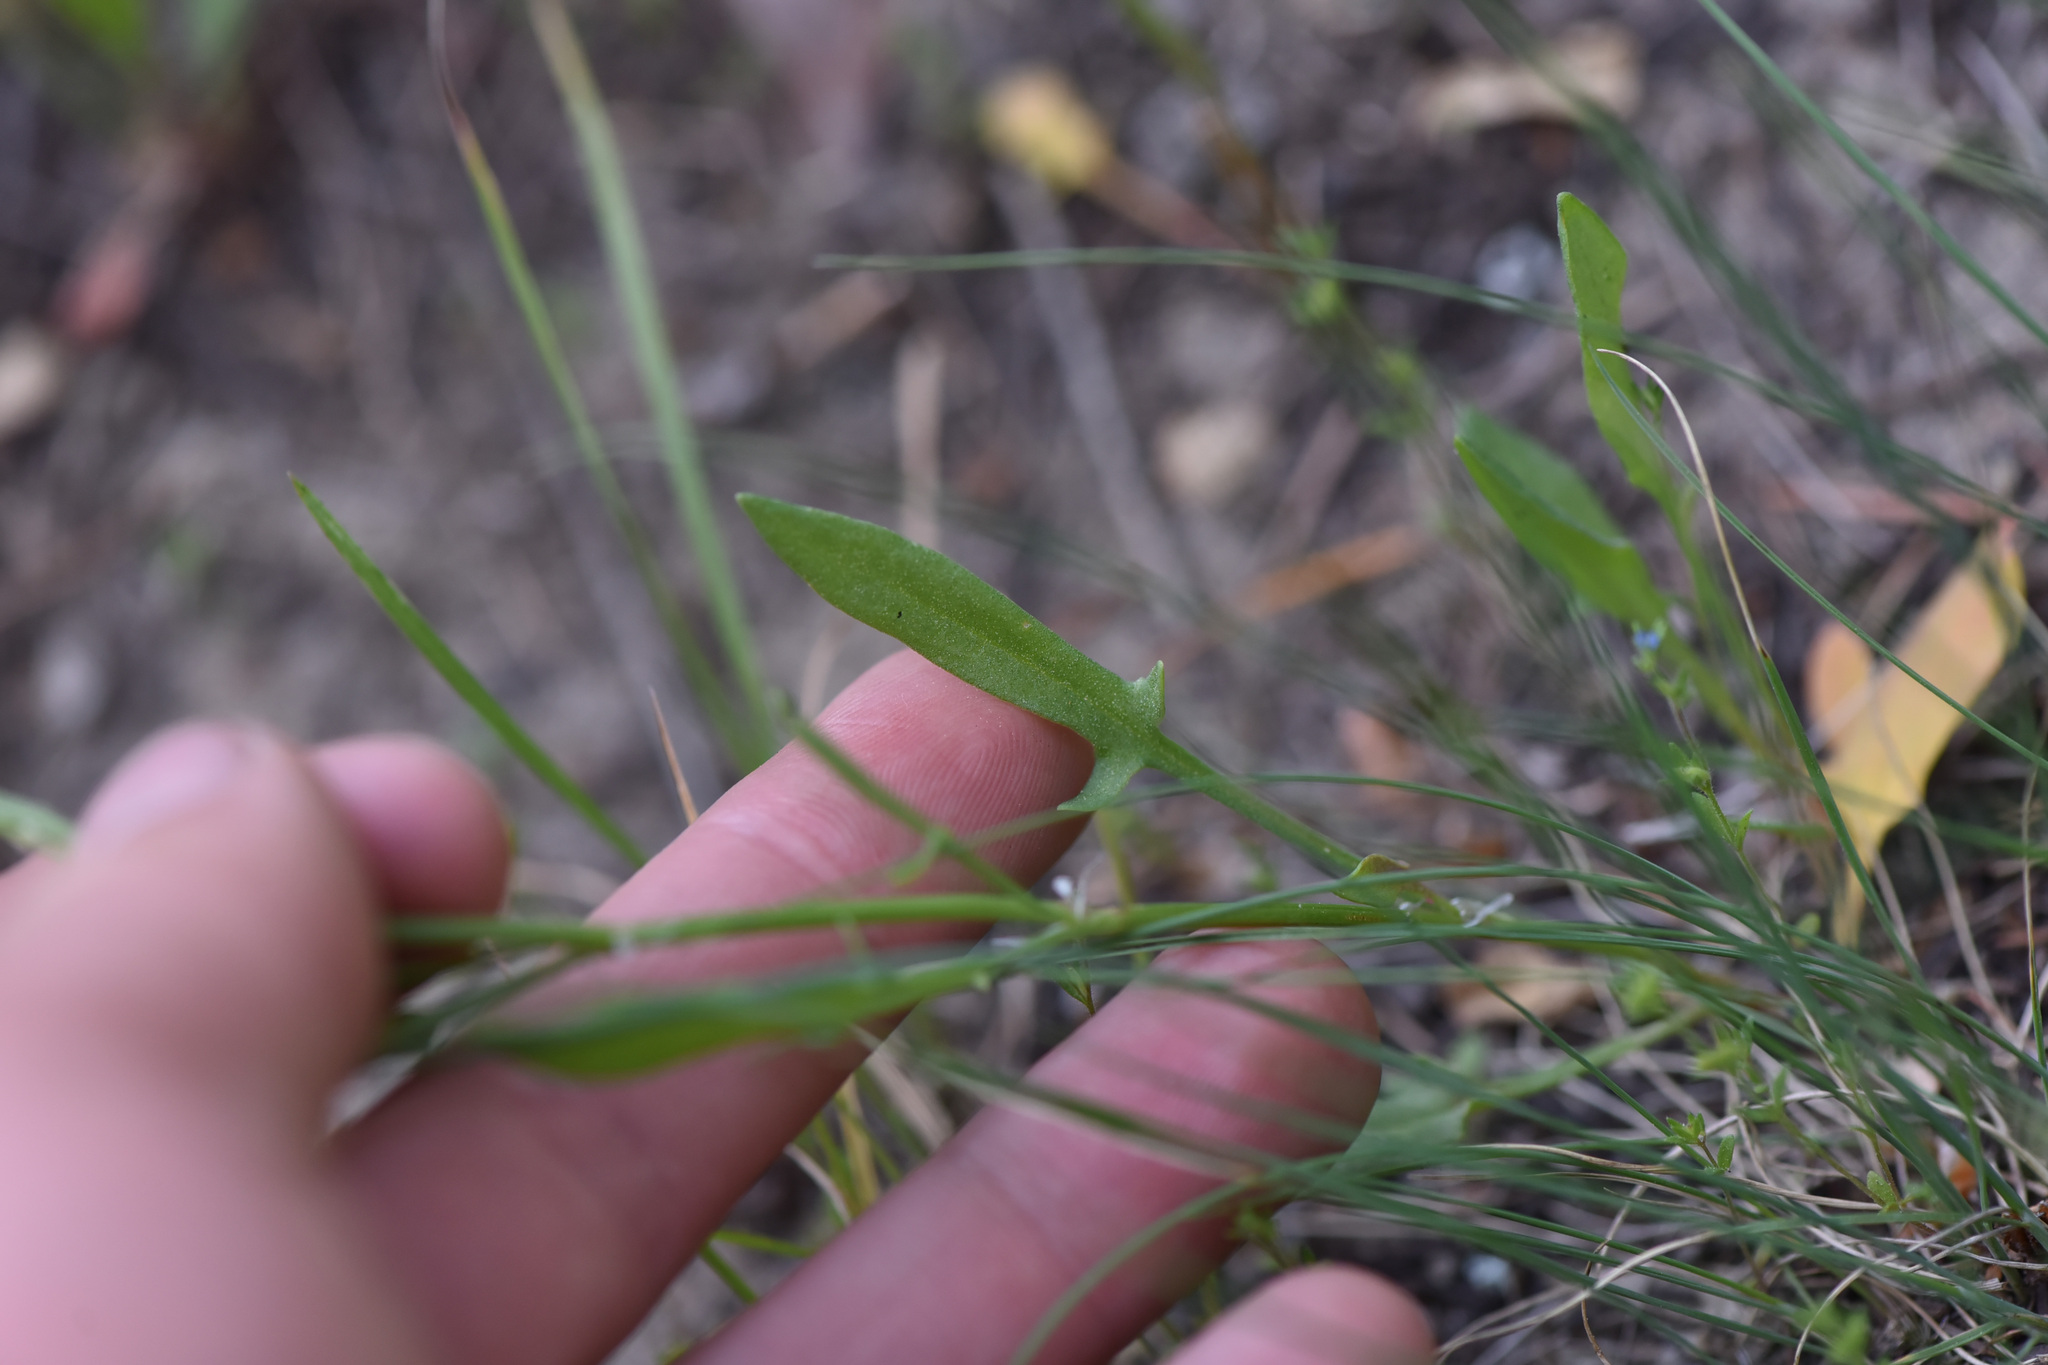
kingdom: Plantae
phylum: Tracheophyta
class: Magnoliopsida
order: Caryophyllales
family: Polygonaceae
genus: Rumex
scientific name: Rumex acetosella
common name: Common sheep sorrel
